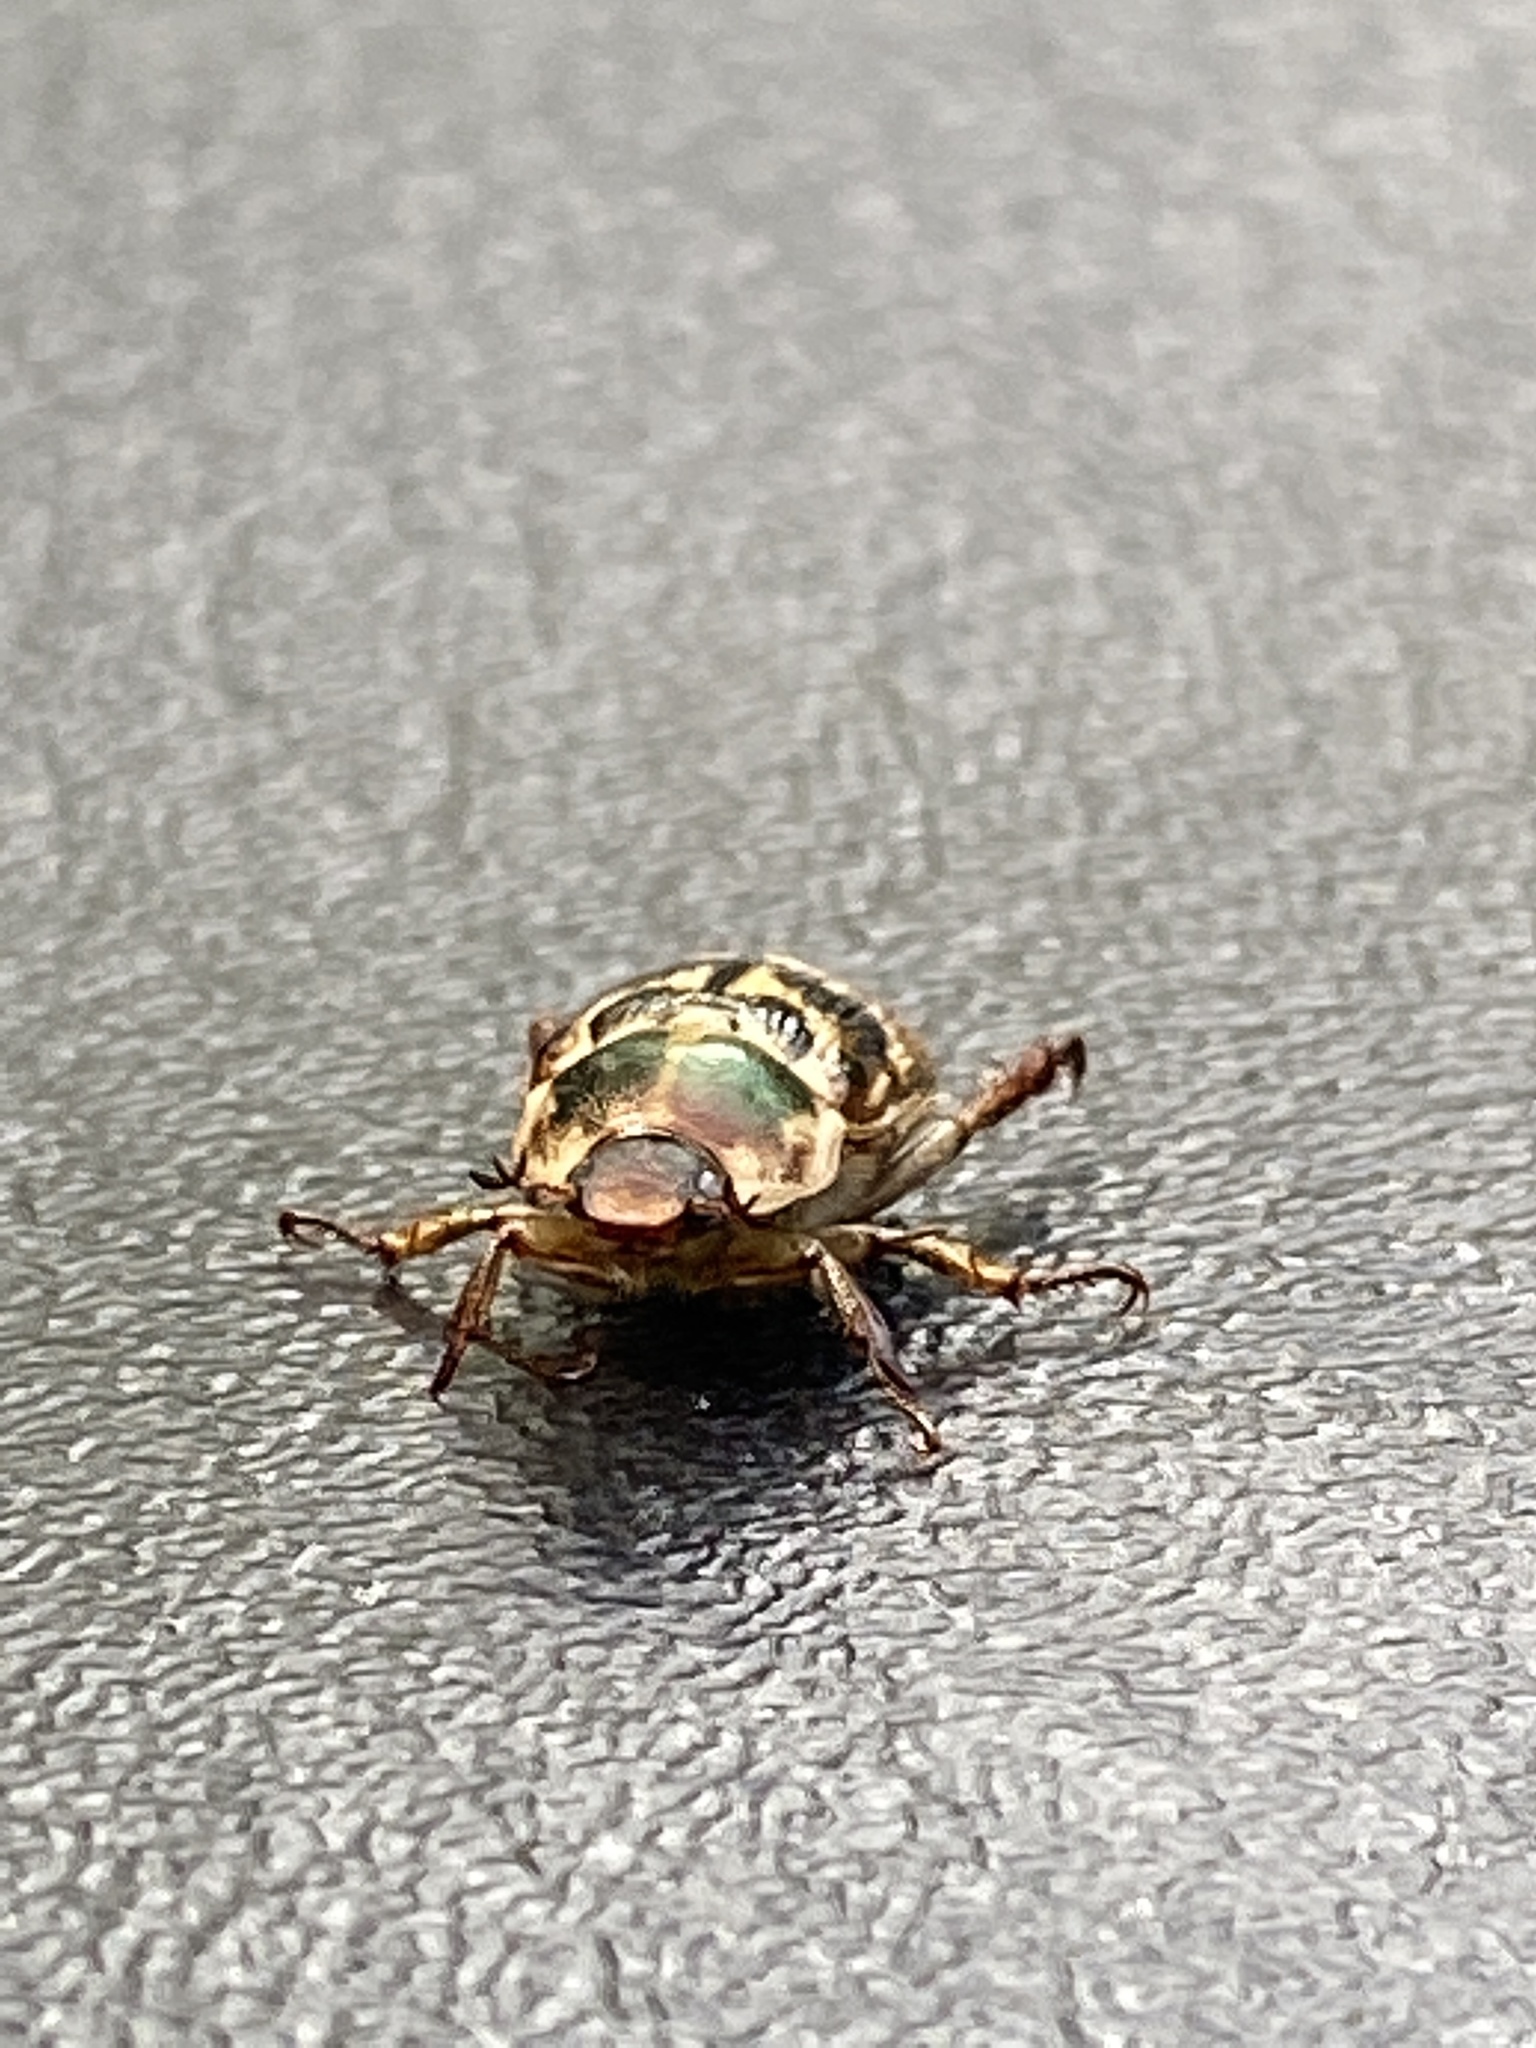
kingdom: Animalia
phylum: Arthropoda
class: Insecta
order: Coleoptera
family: Scarabaeidae
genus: Exomala
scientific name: Exomala orientalis
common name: Oriental beetle
